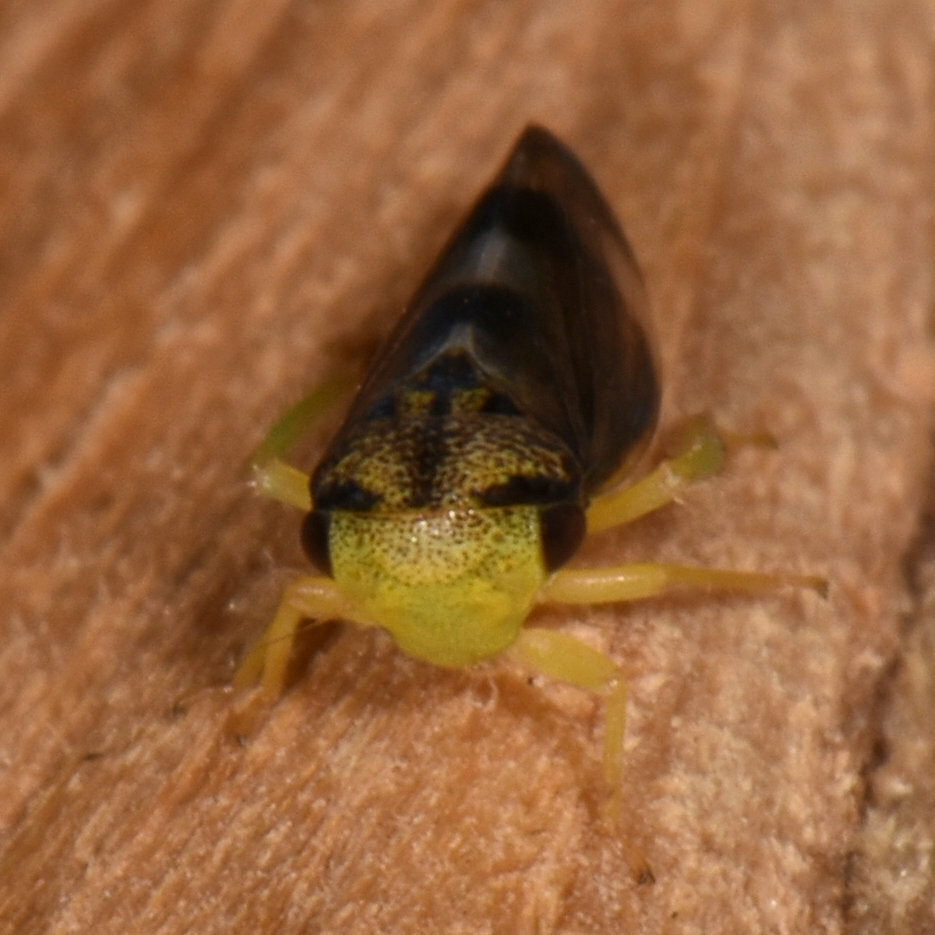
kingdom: Animalia
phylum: Arthropoda
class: Insecta
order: Hemiptera
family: Cicadellidae
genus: Pediopsoides
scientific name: Pediopsoides distinctus
